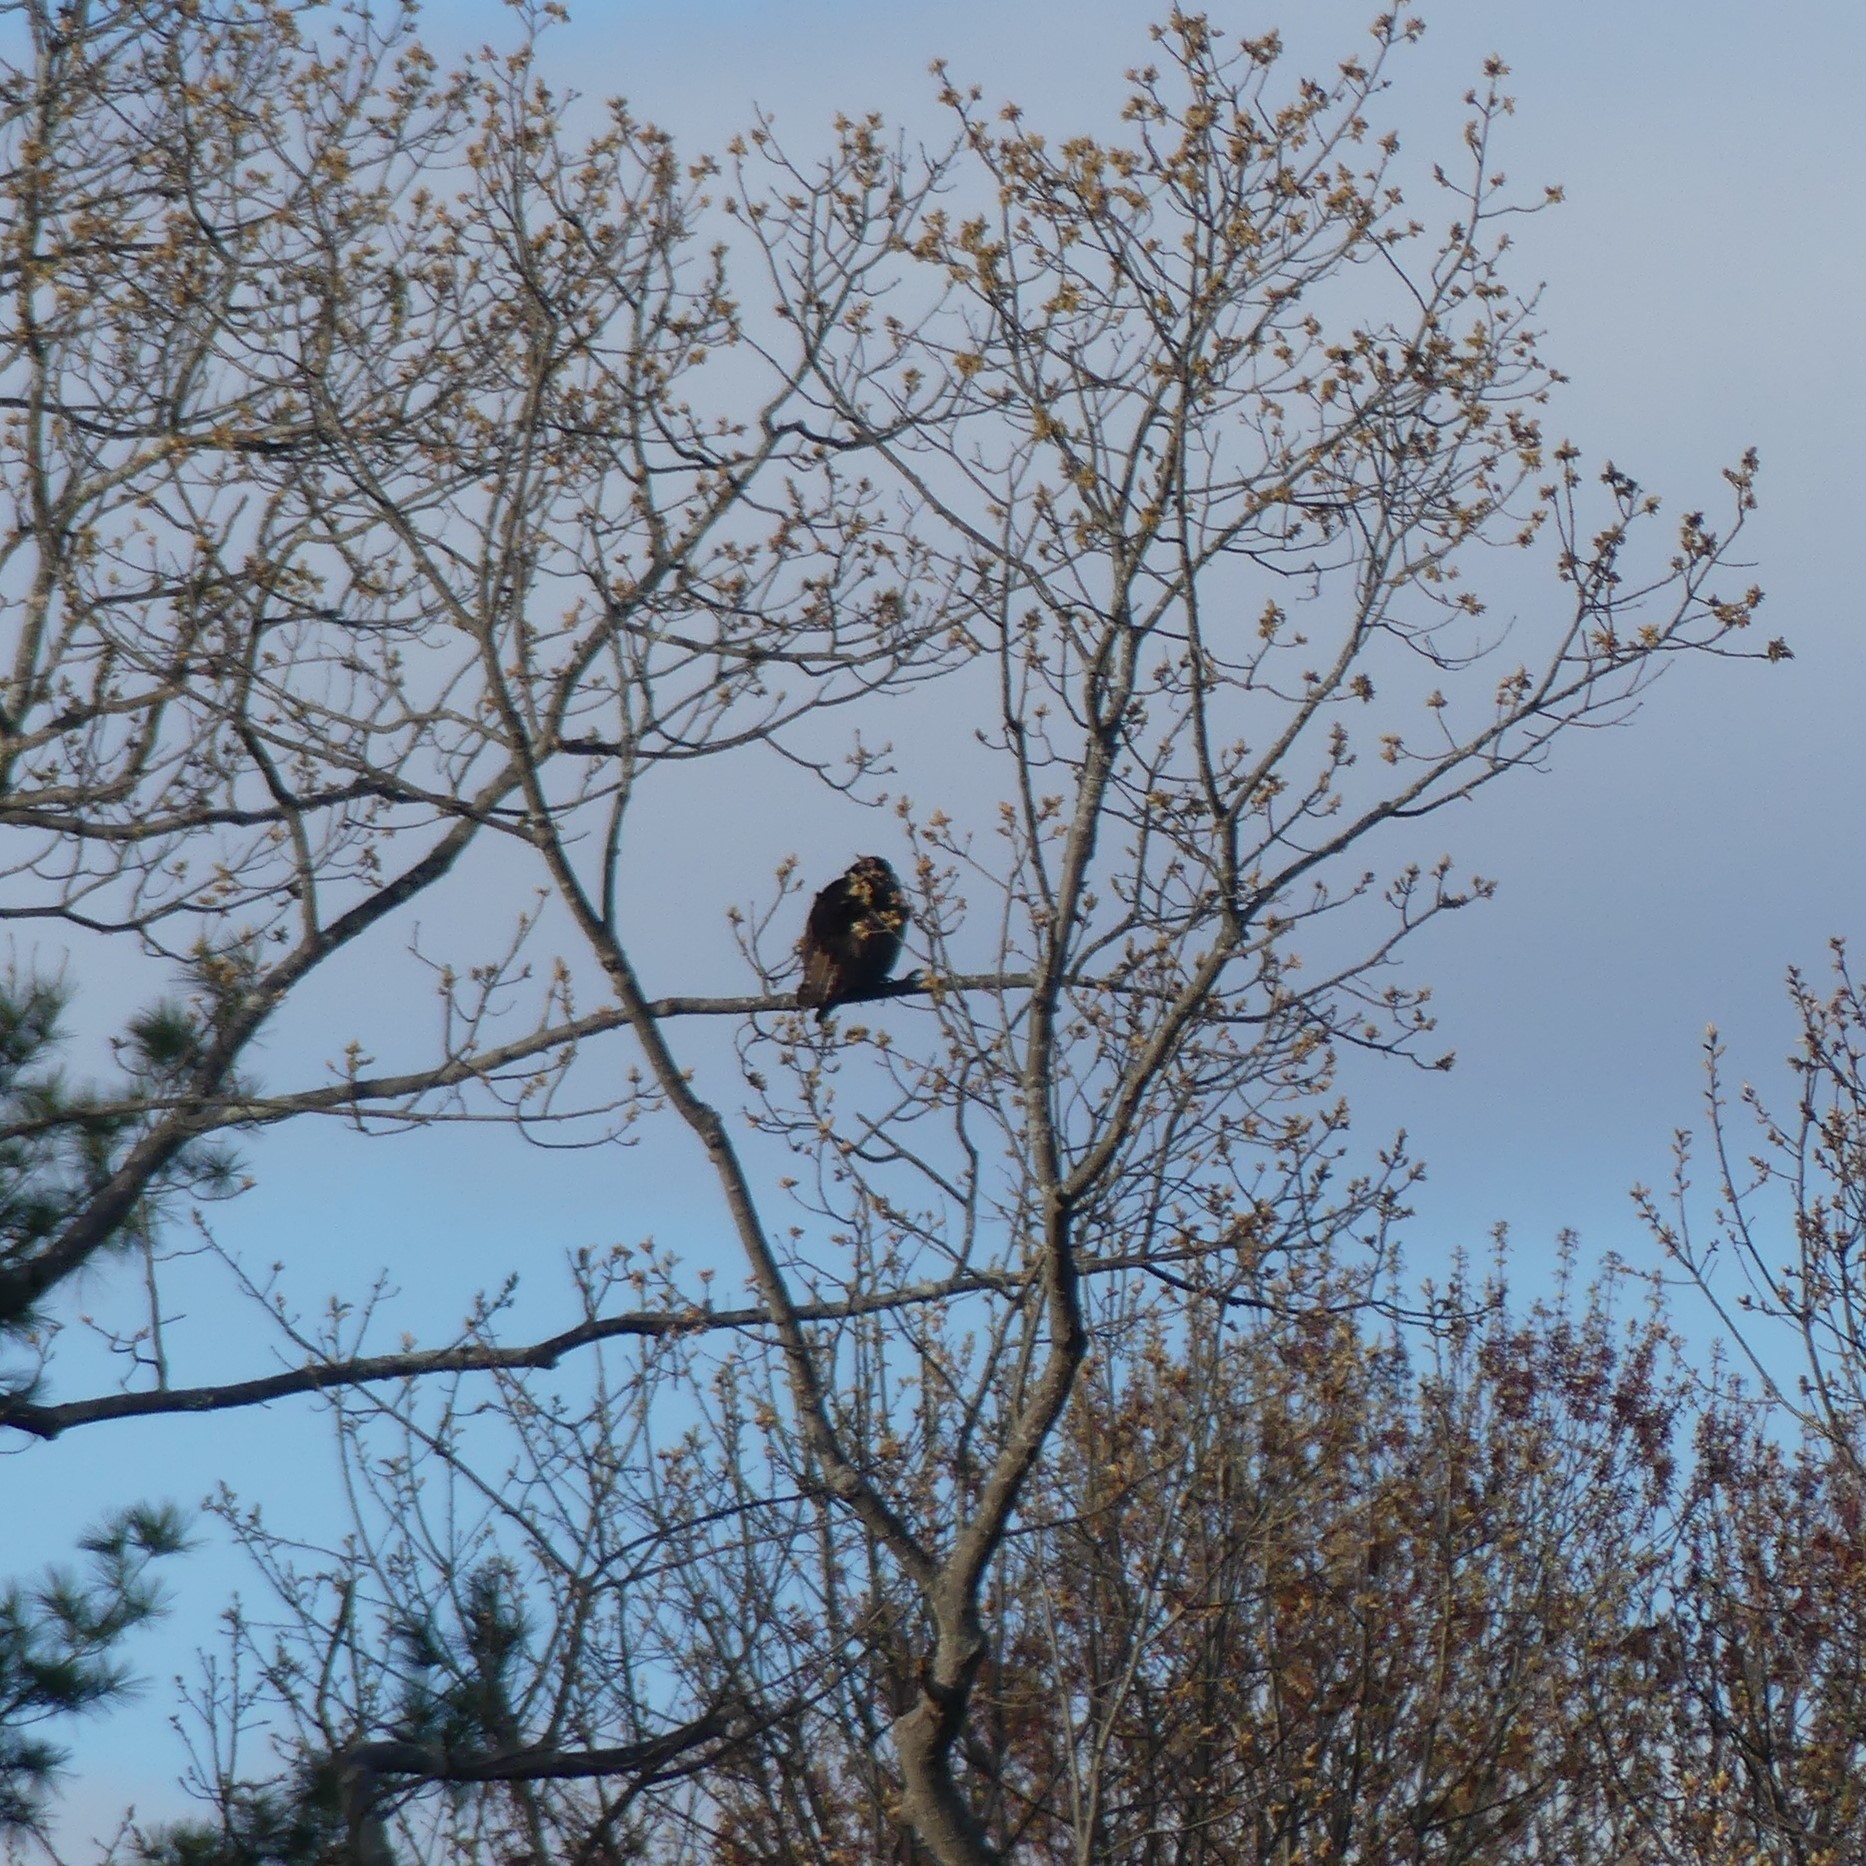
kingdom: Animalia
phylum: Chordata
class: Aves
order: Accipitriformes
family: Pandionidae
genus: Pandion
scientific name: Pandion haliaetus
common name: Osprey
